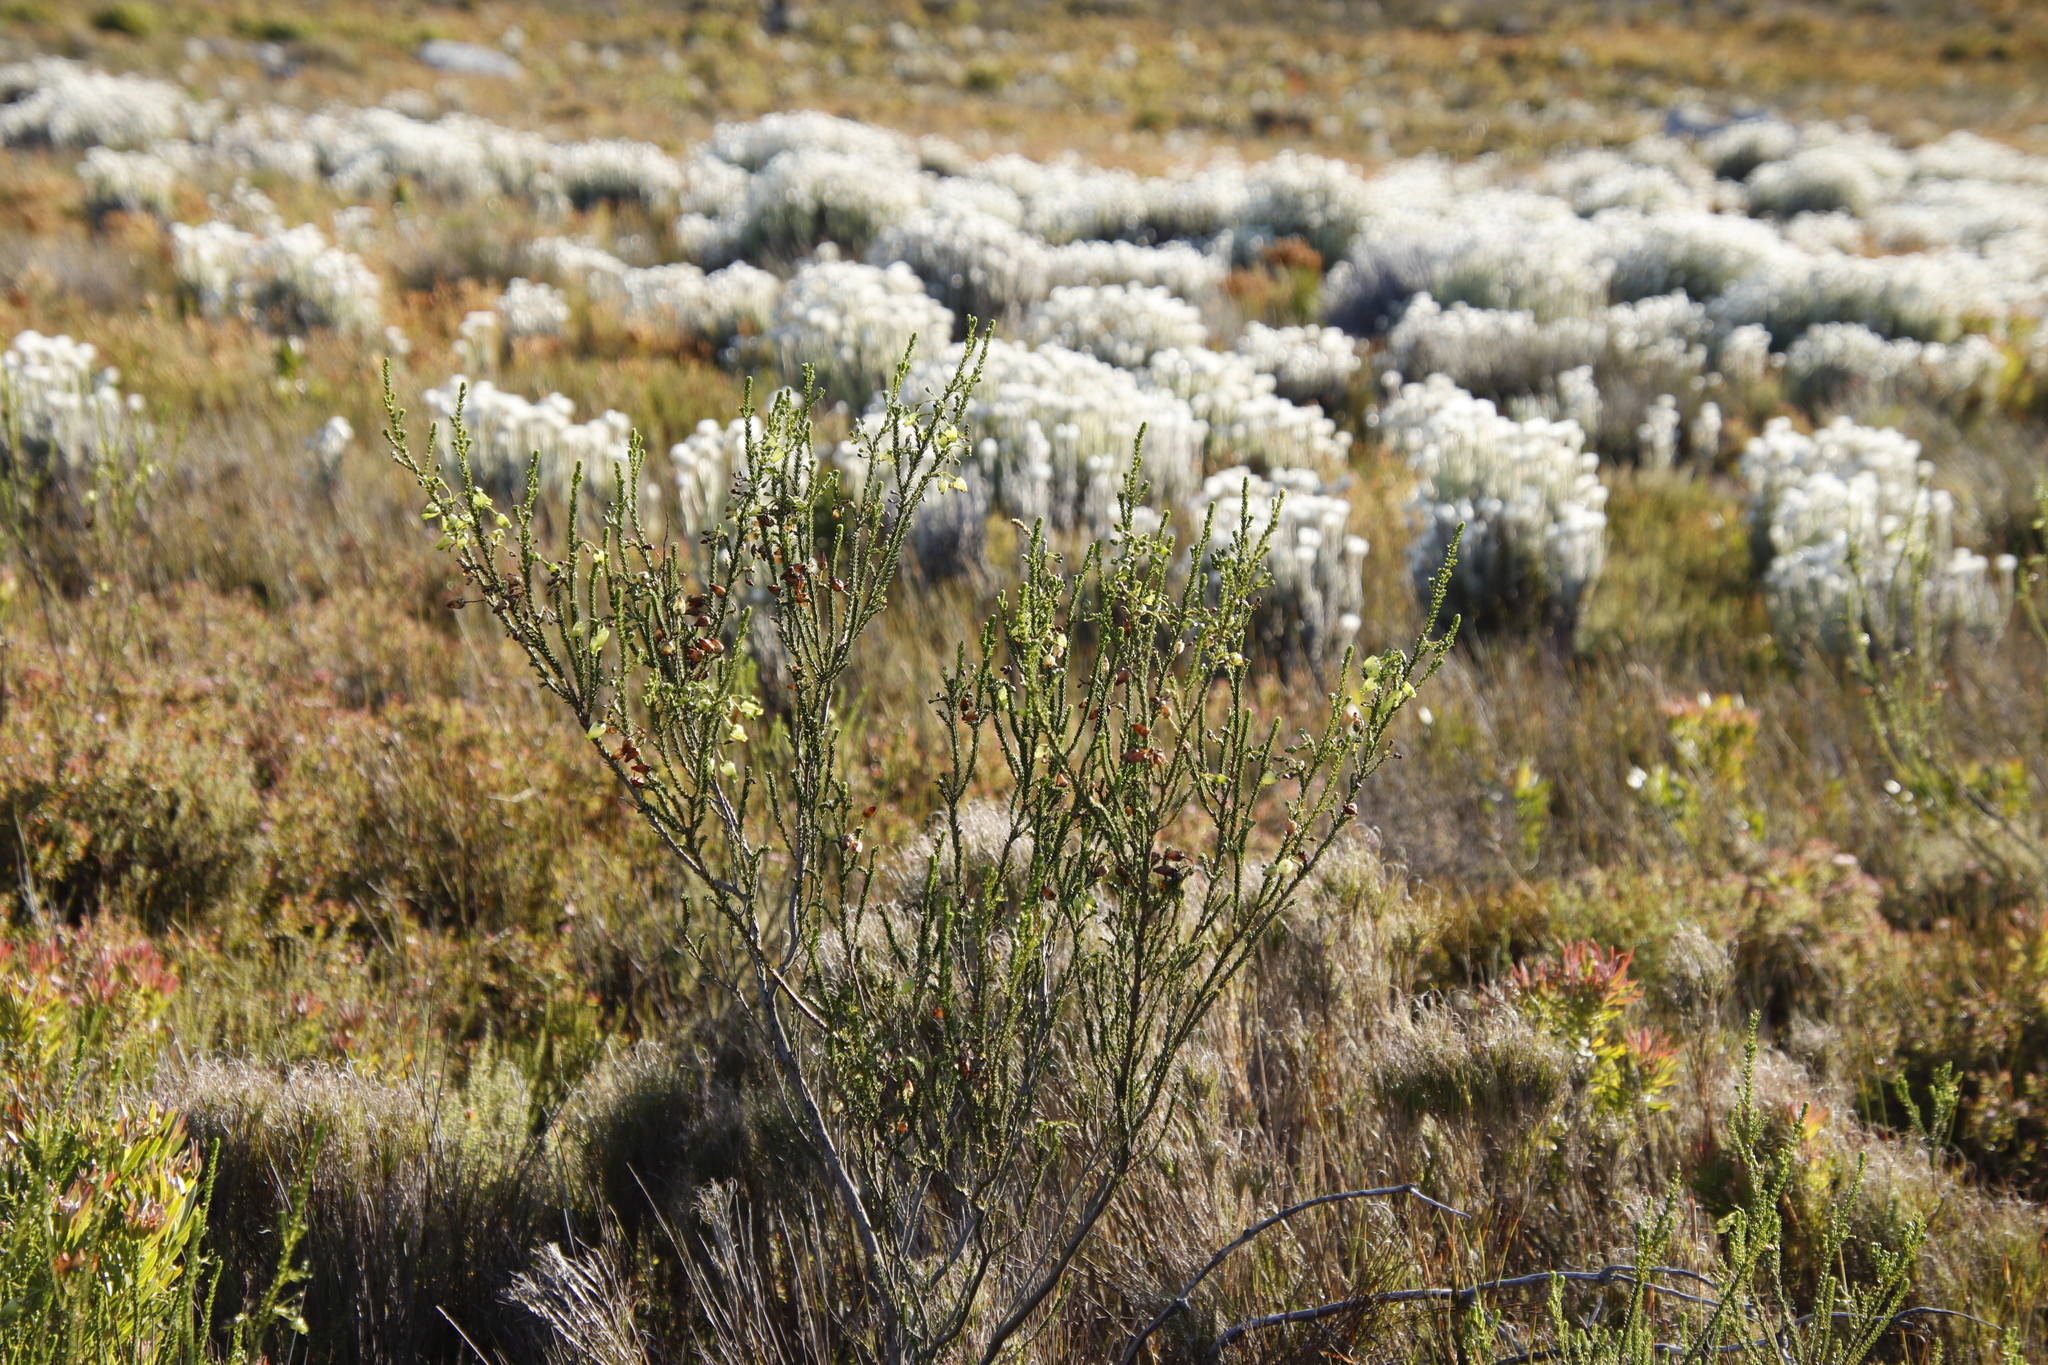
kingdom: Plantae
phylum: Tracheophyta
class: Magnoliopsida
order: Ericales
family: Ericaceae
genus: Erica
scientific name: Erica urna-viridis
